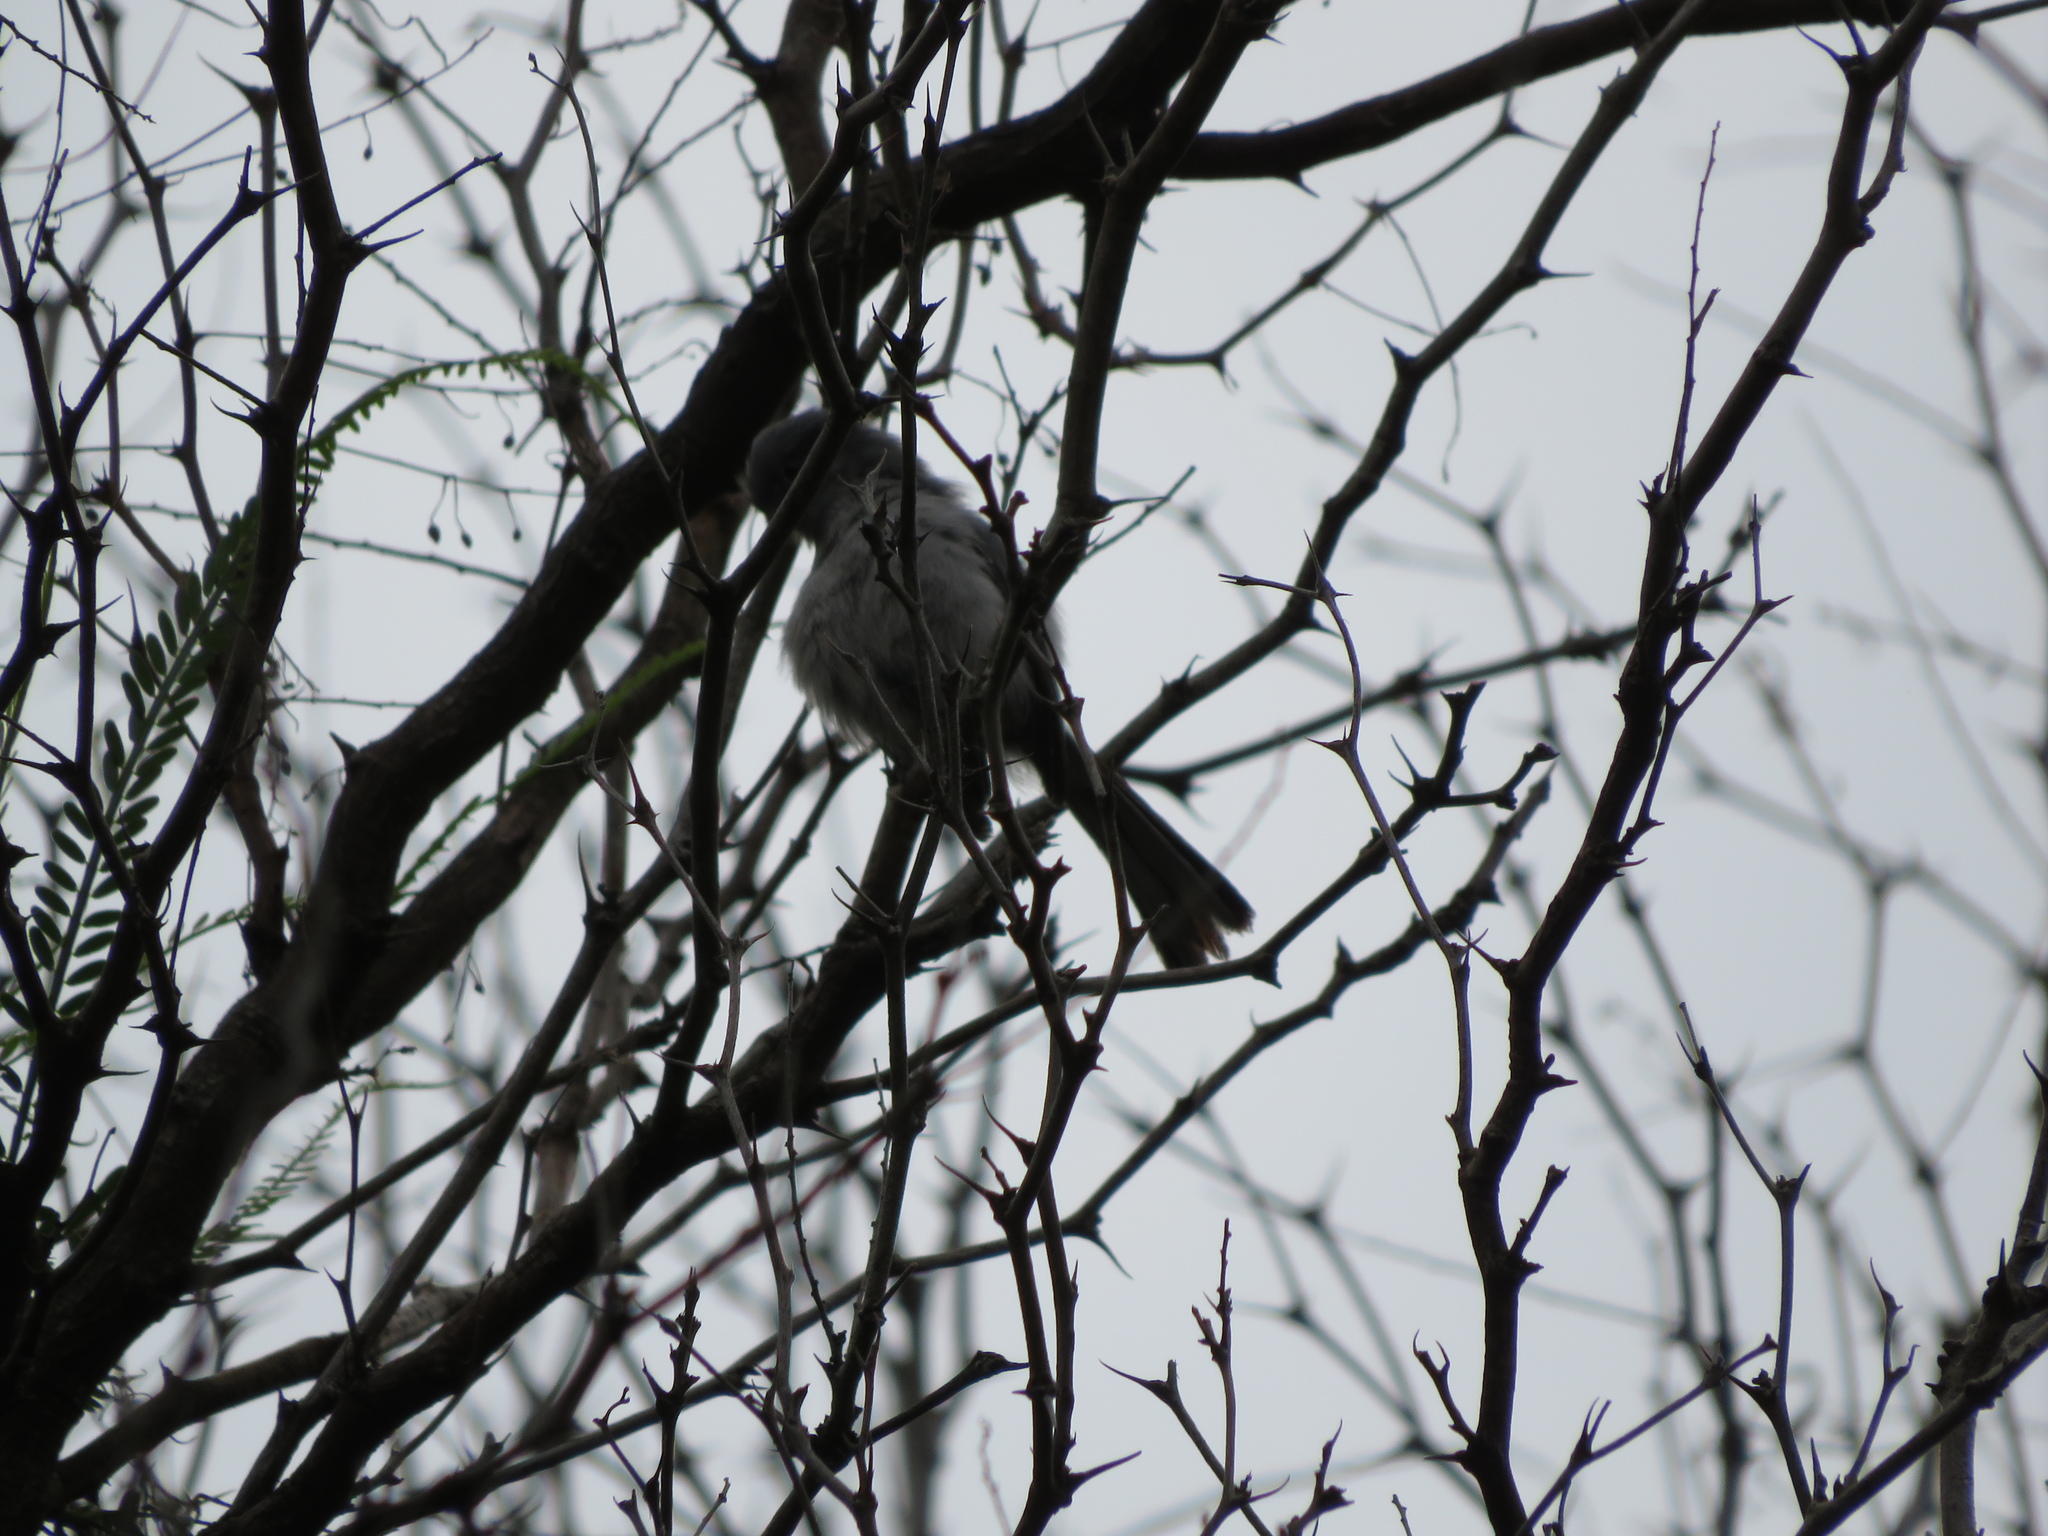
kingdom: Animalia
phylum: Chordata
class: Aves
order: Passeriformes
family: Polioptilidae
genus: Polioptila
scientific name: Polioptila dumicola
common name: Masked gnatcatcher
